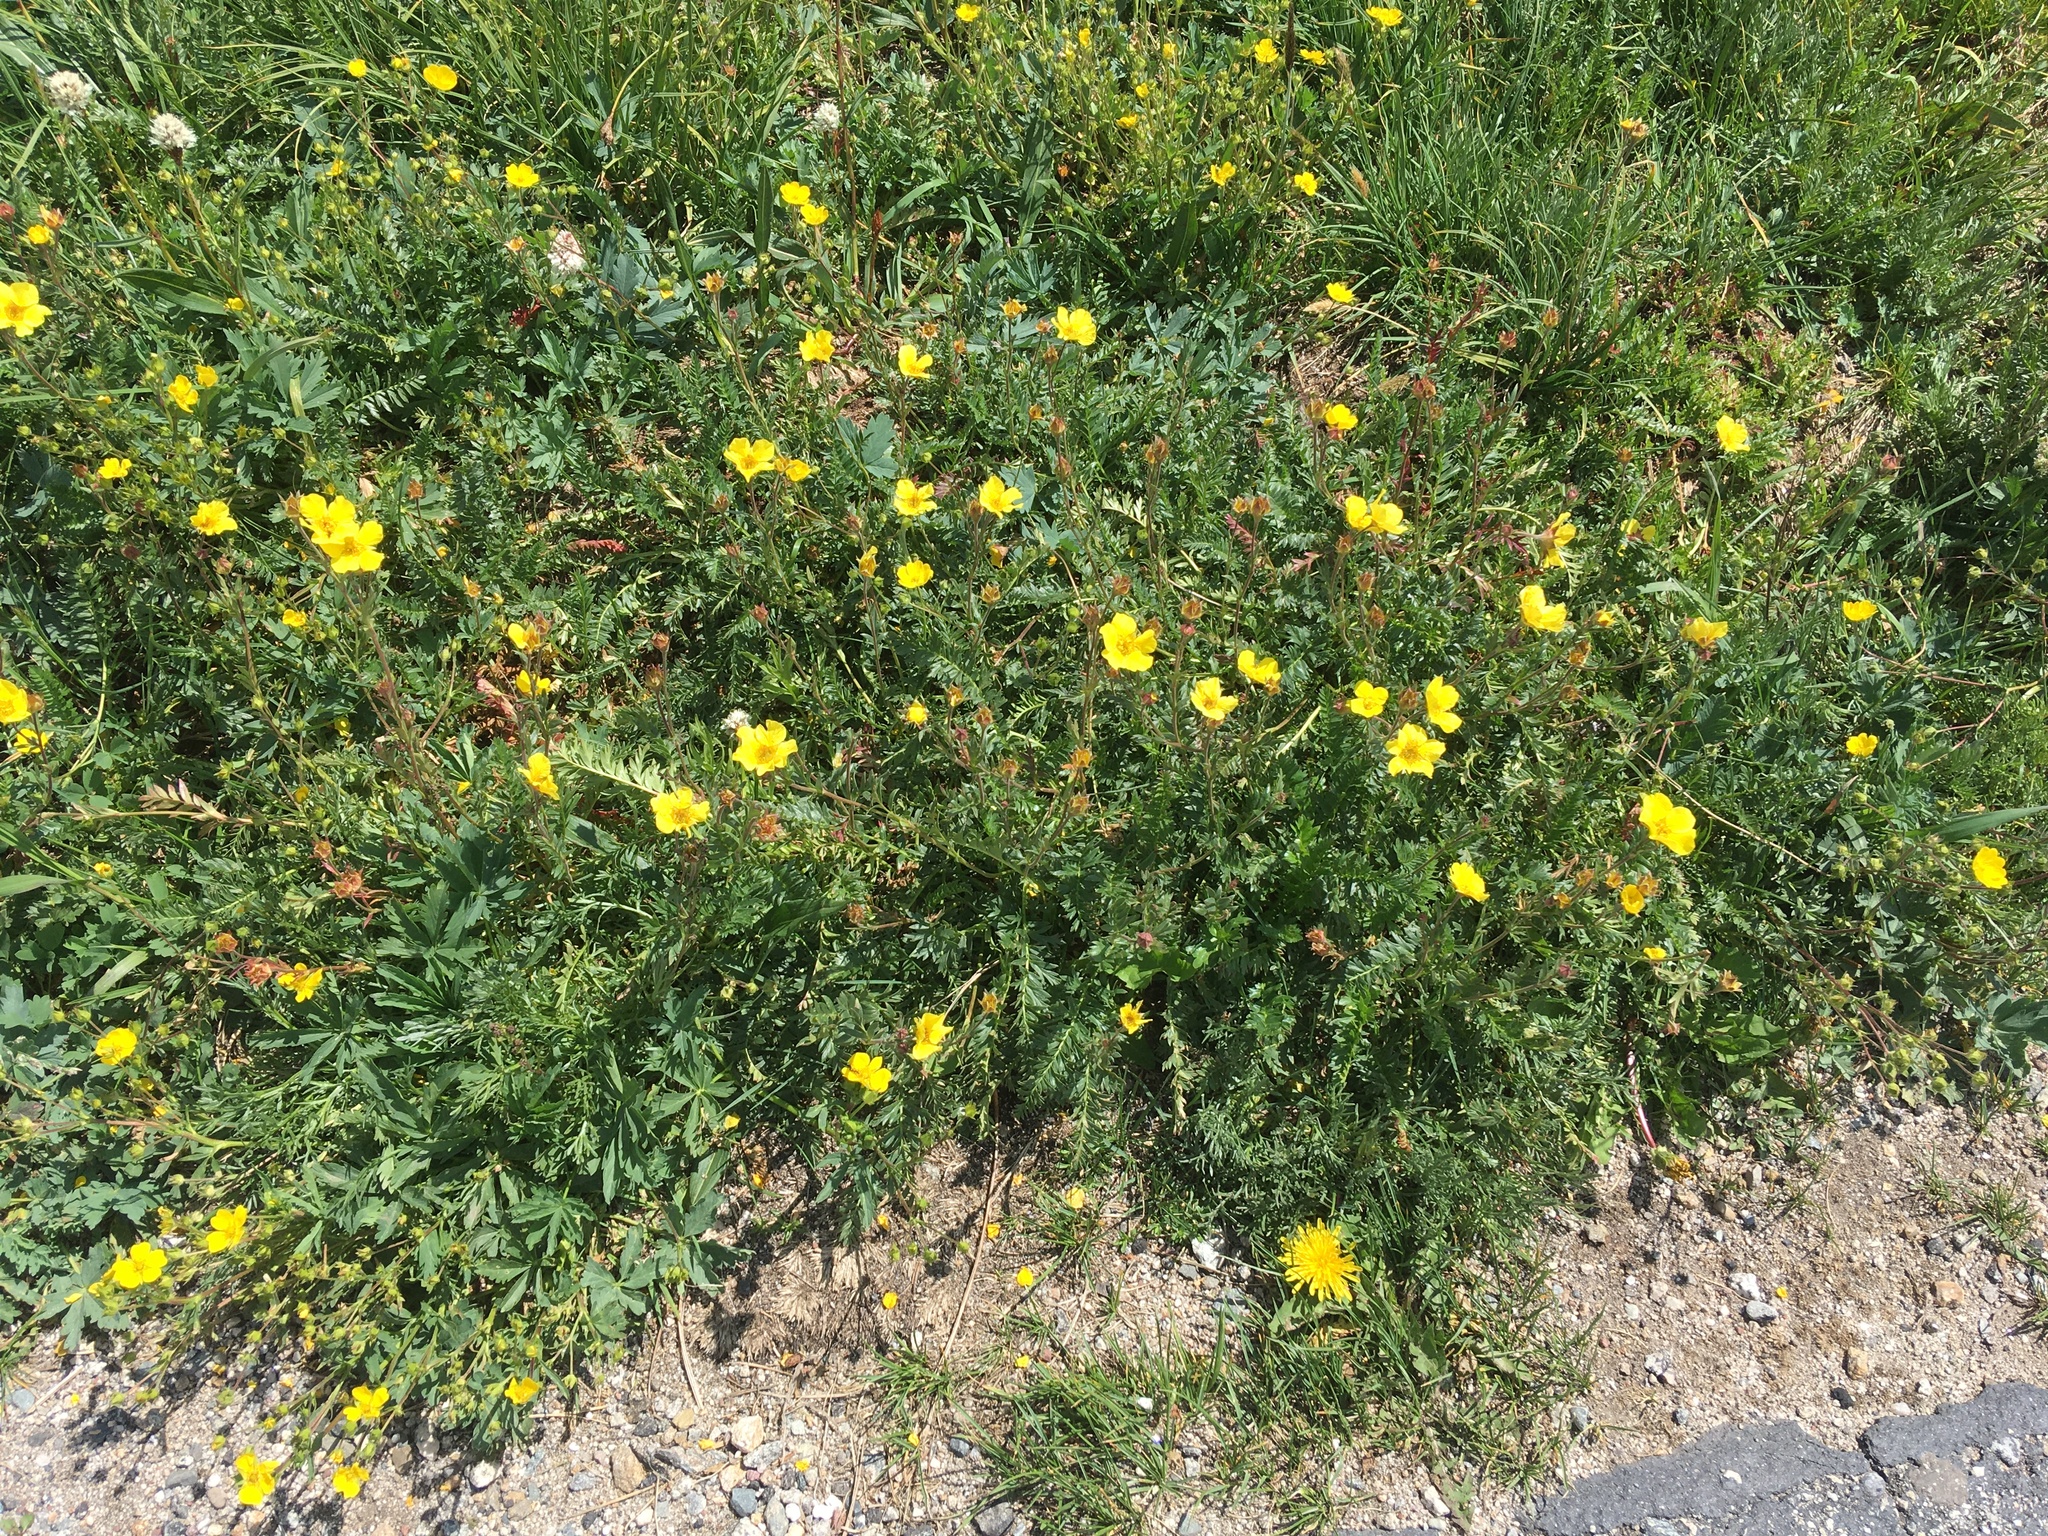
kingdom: Plantae
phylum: Tracheophyta
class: Magnoliopsida
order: Rosales
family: Rosaceae
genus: Geum
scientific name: Geum rossii
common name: Alpine avens
